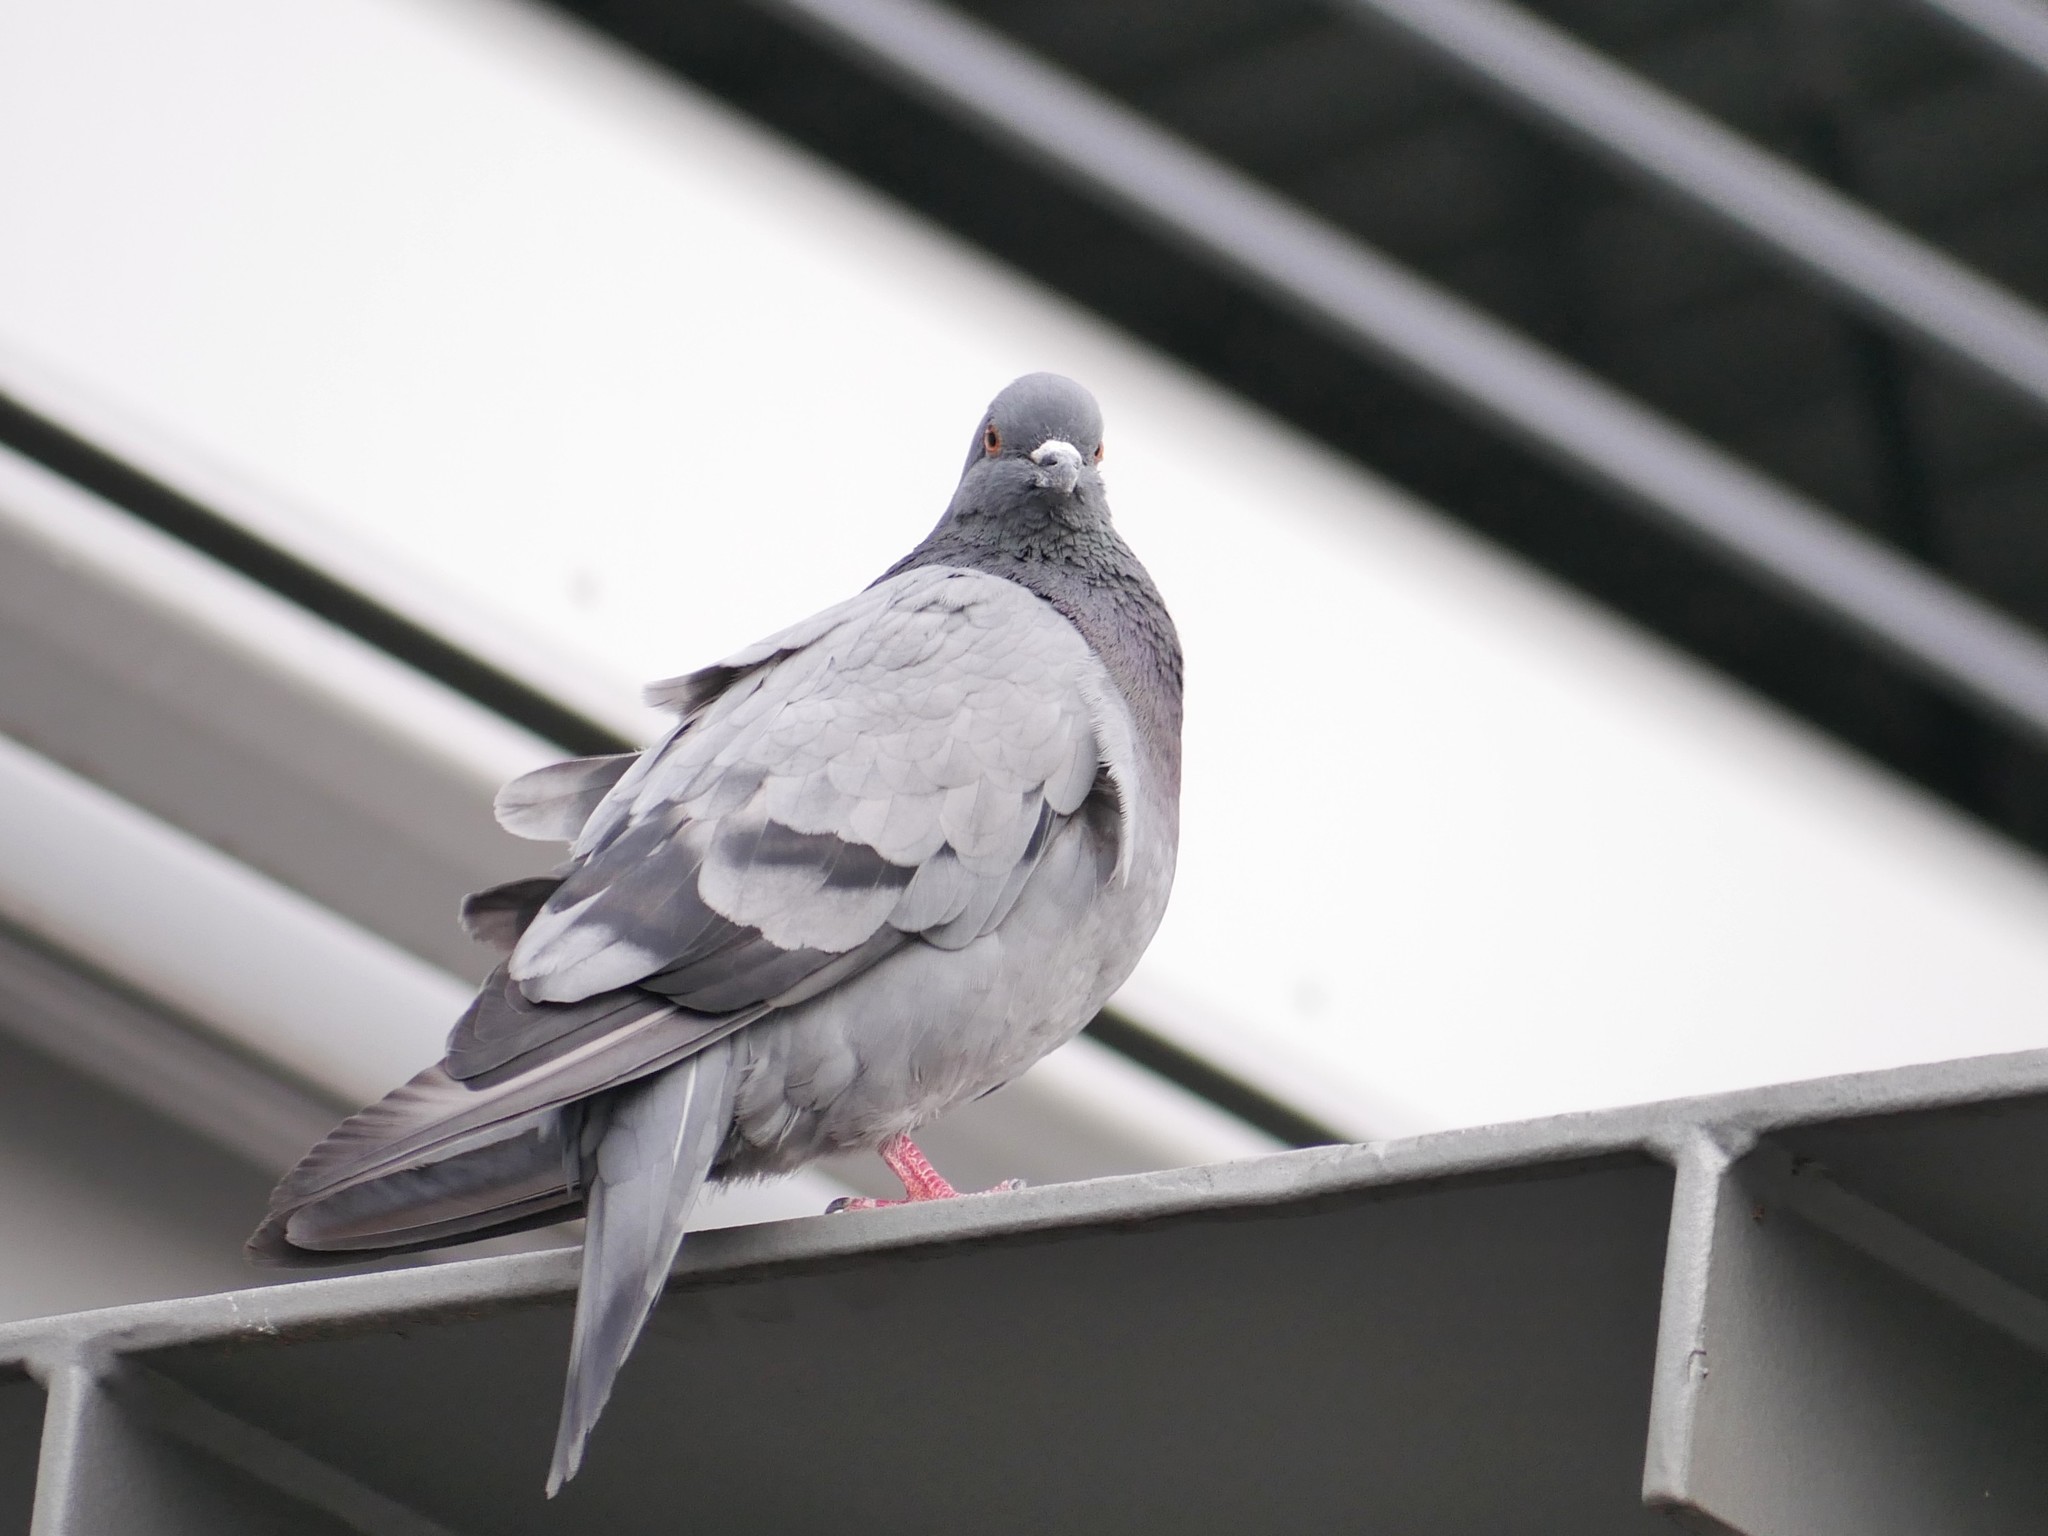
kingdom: Animalia
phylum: Chordata
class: Aves
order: Columbiformes
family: Columbidae
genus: Columba
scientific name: Columba livia
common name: Rock pigeon
